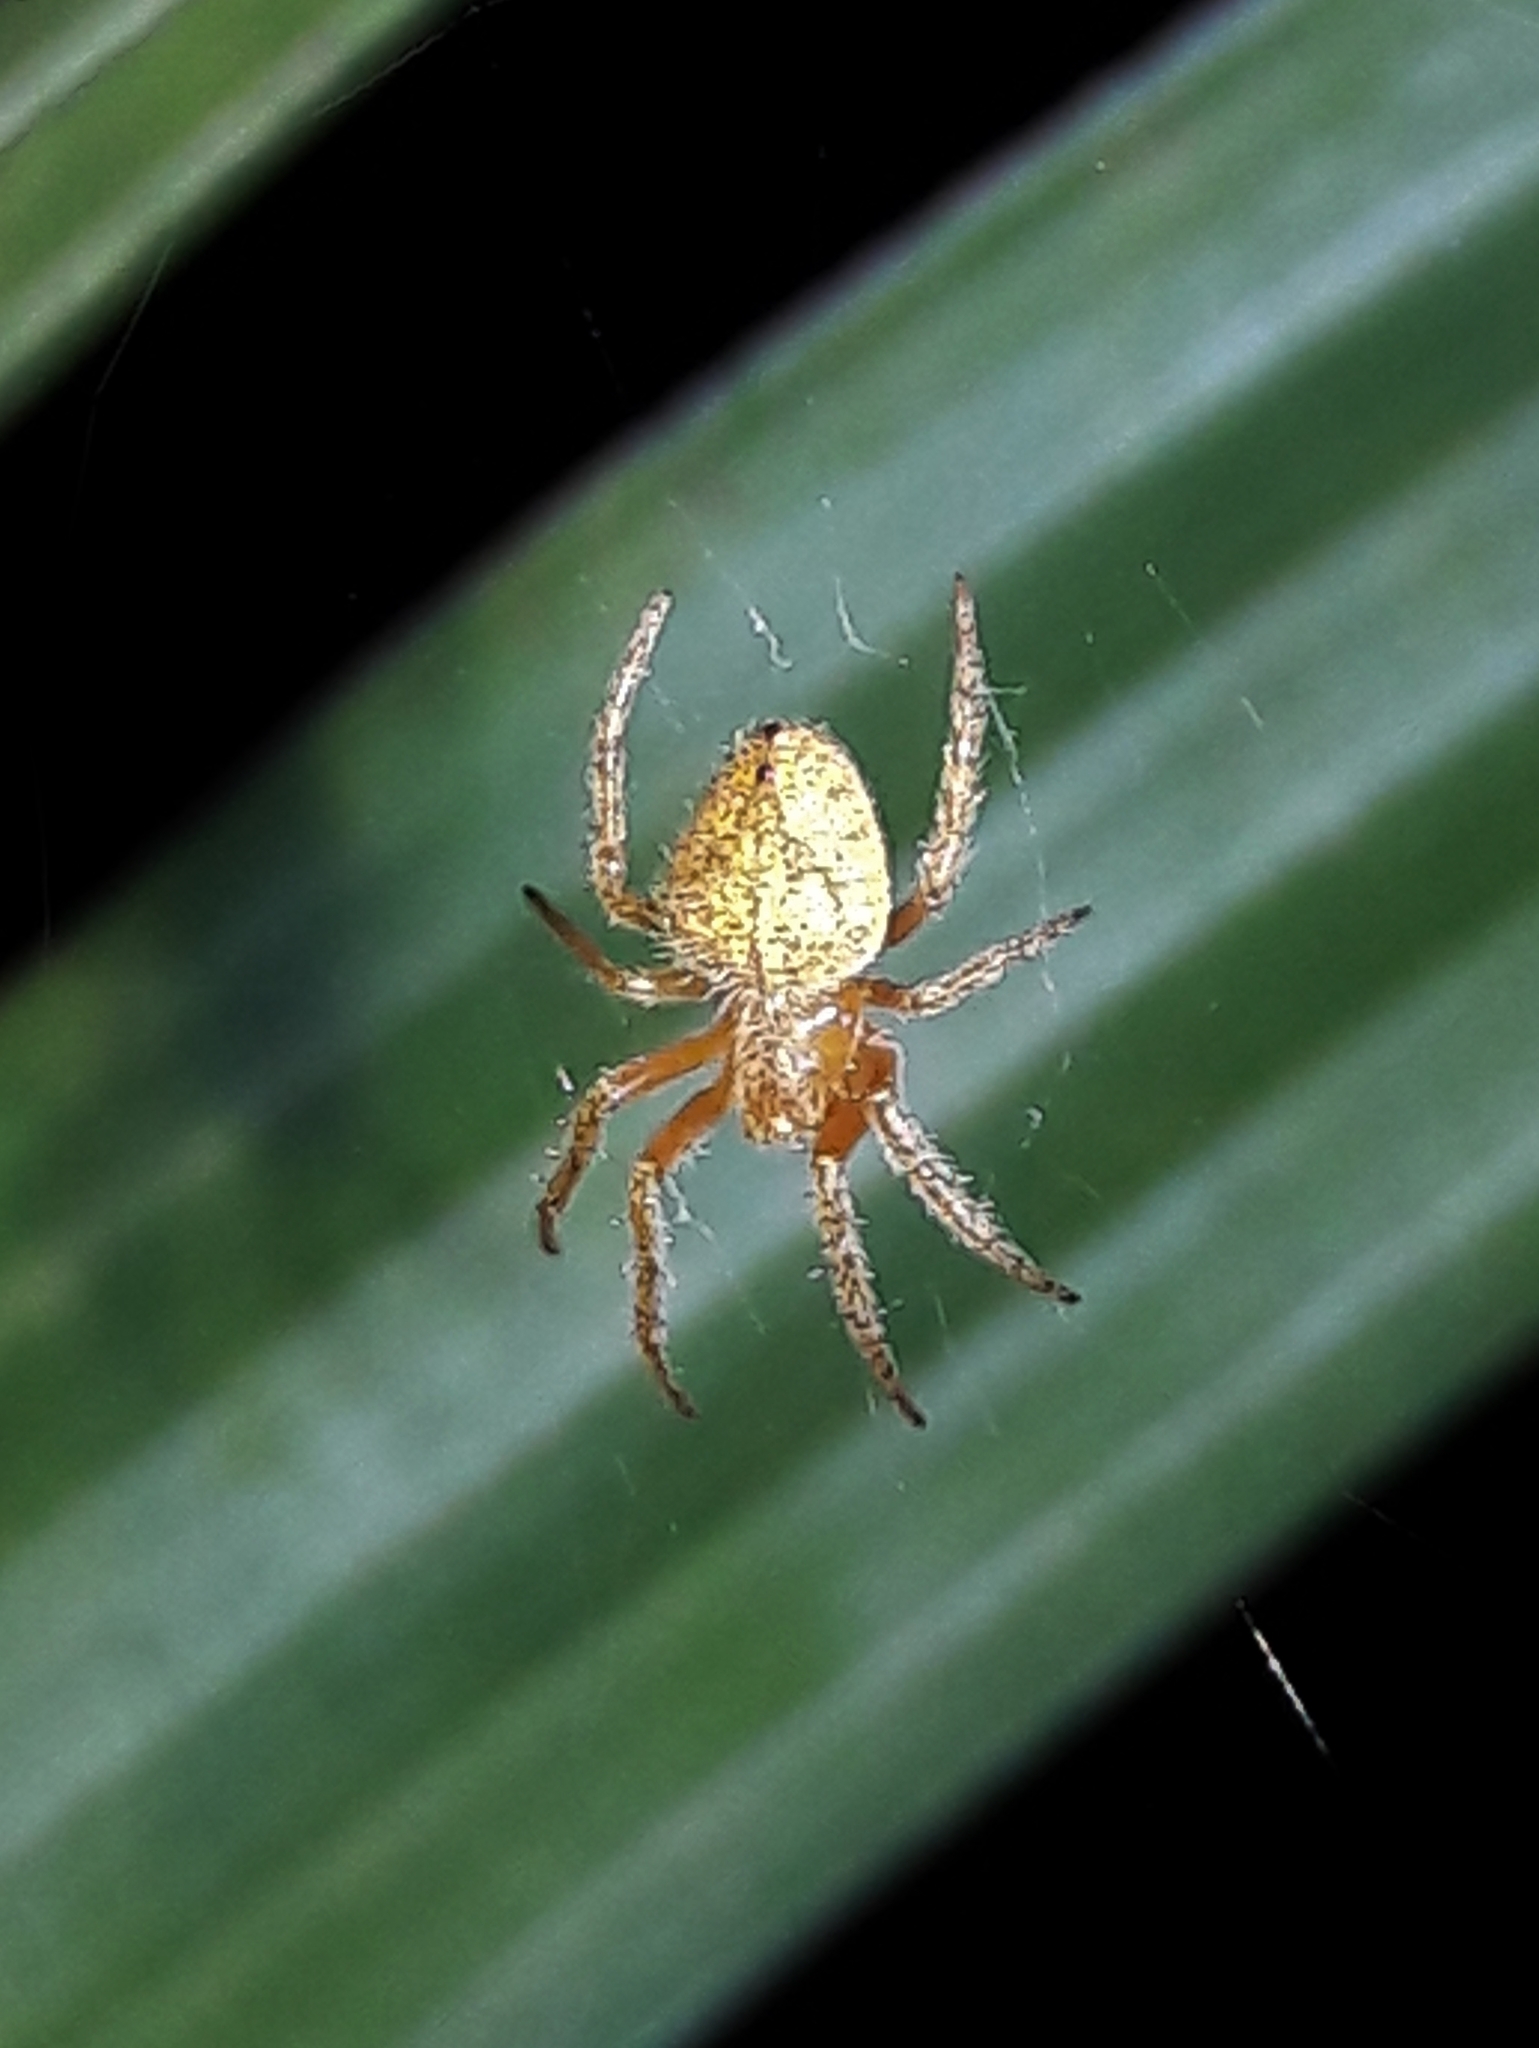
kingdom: Animalia
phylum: Arthropoda
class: Arachnida
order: Araneae
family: Araneidae
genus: Eriophora
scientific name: Eriophora edax
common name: Orb weavers
